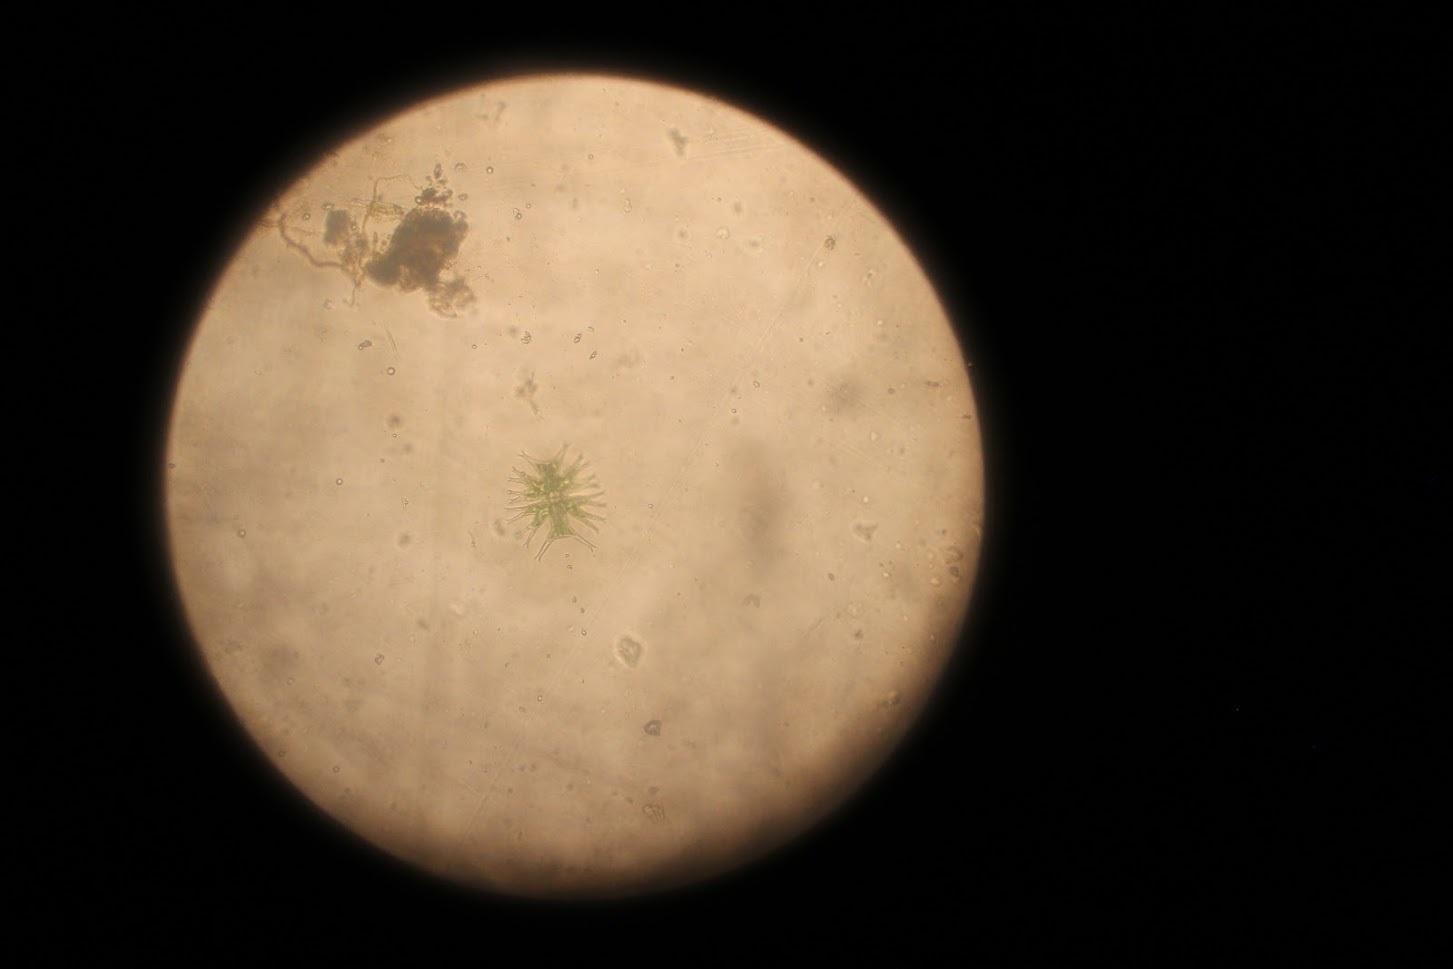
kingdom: Plantae
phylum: Charophyta
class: Conjugatophyceae
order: Desmidiales
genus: Micrasterias
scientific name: Micrasterias furcata
